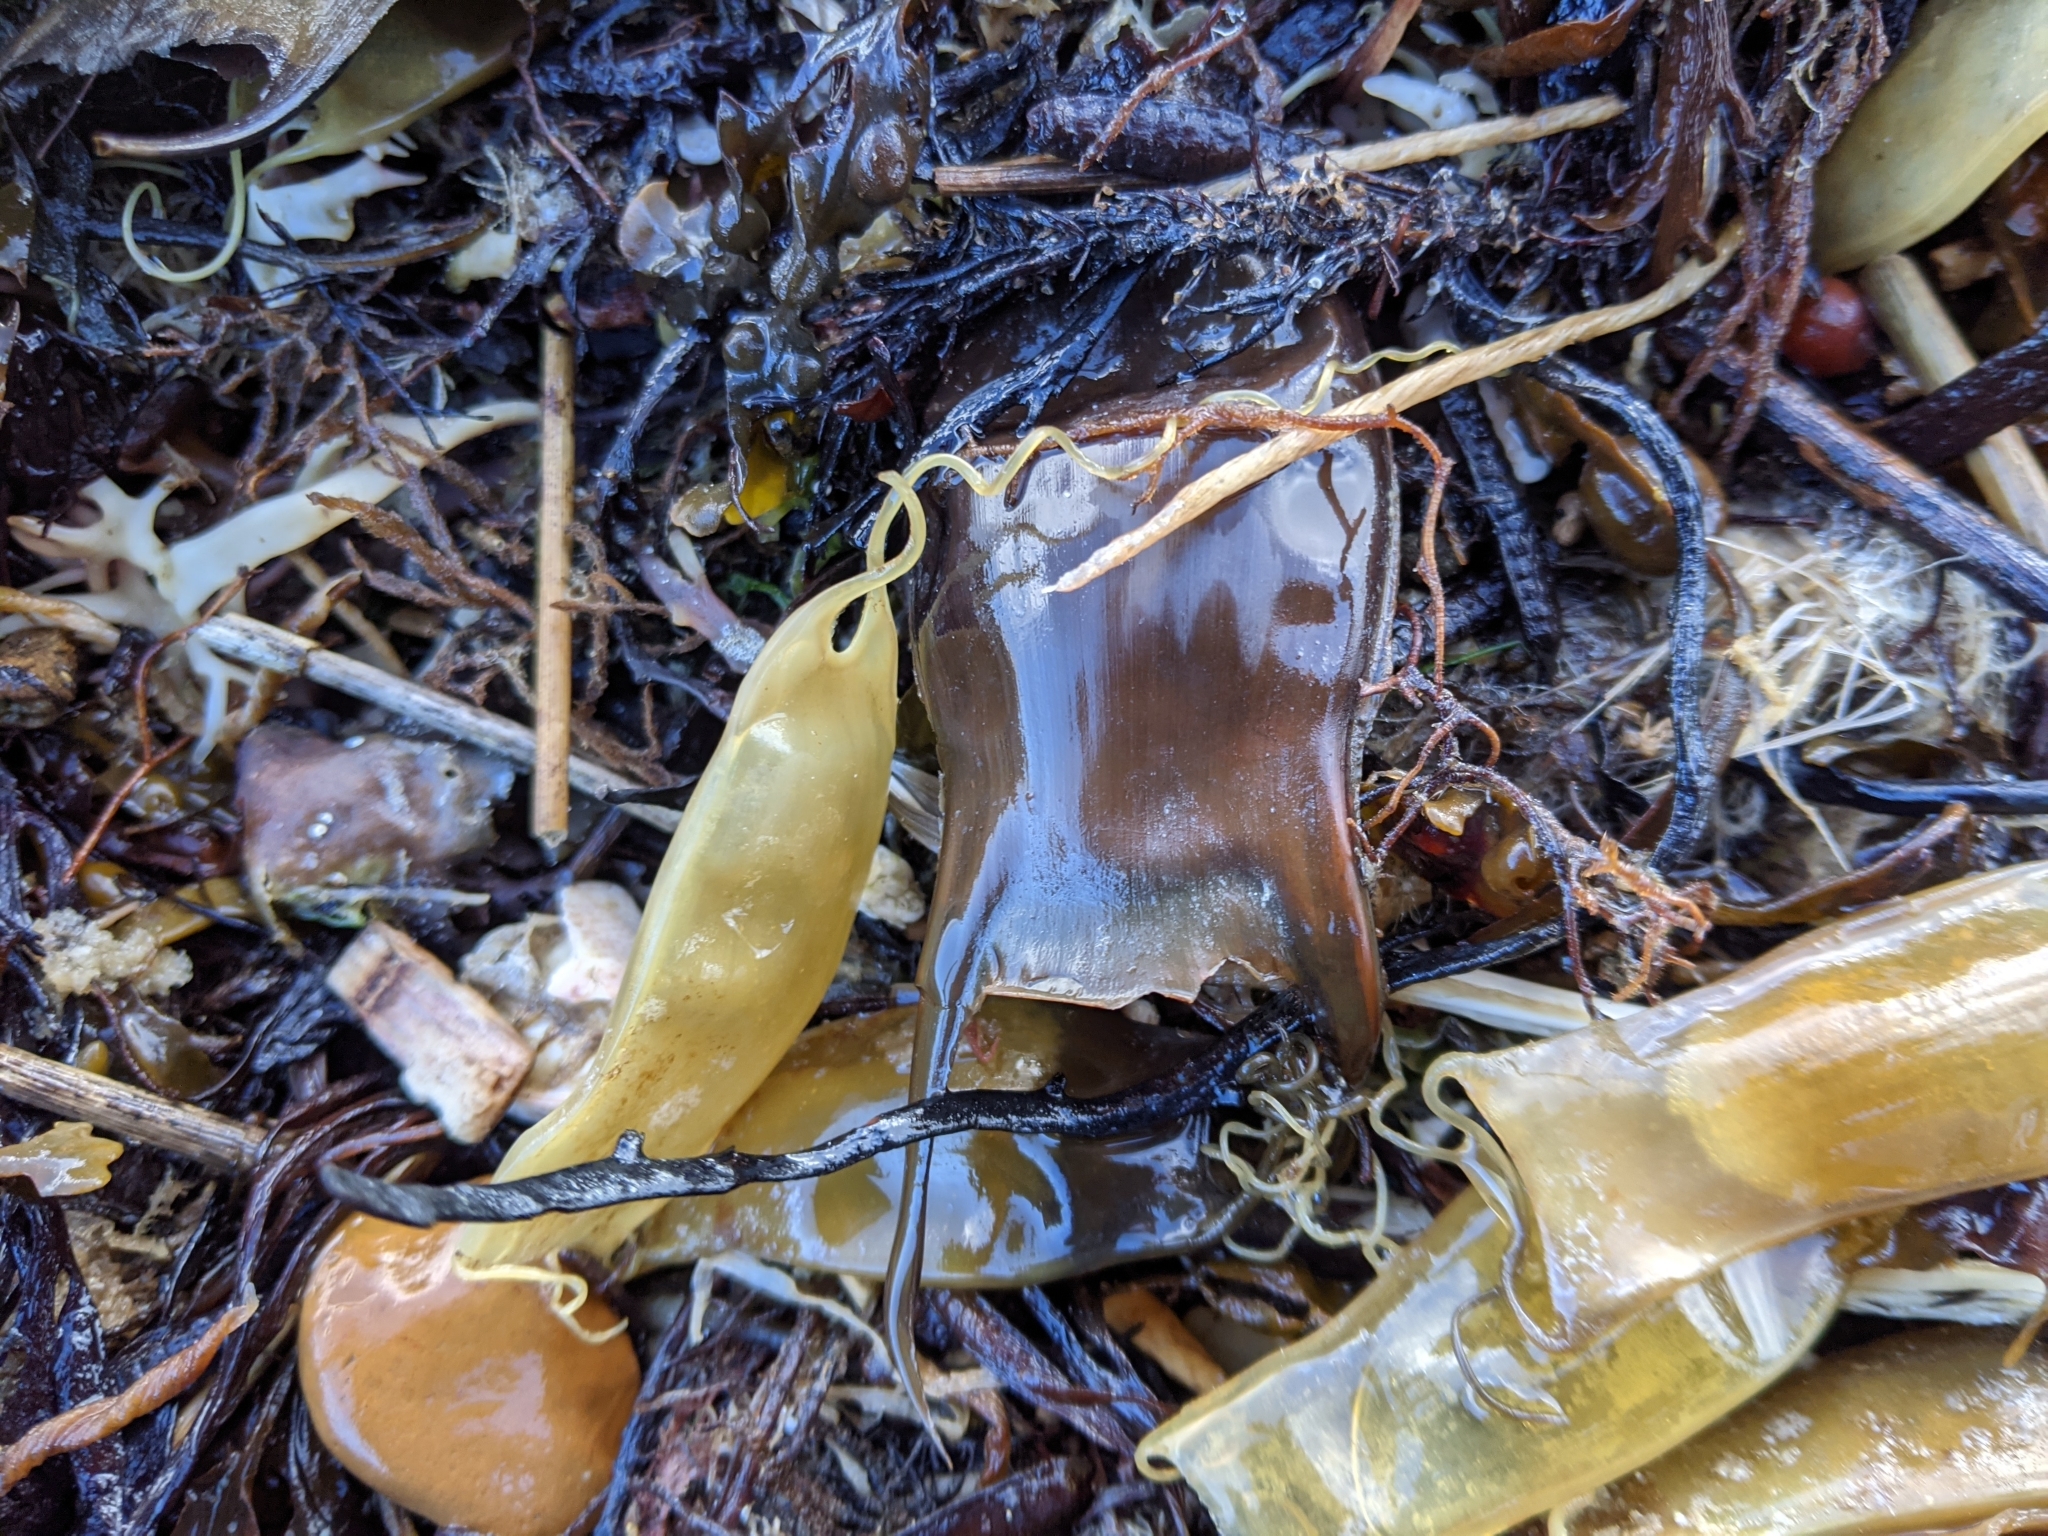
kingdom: Animalia
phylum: Chordata
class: Elasmobranchii
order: Carcharhiniformes
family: Scyliorhinidae
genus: Scyliorhinus
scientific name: Scyliorhinus canicula
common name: Lesser spotted dogfish
